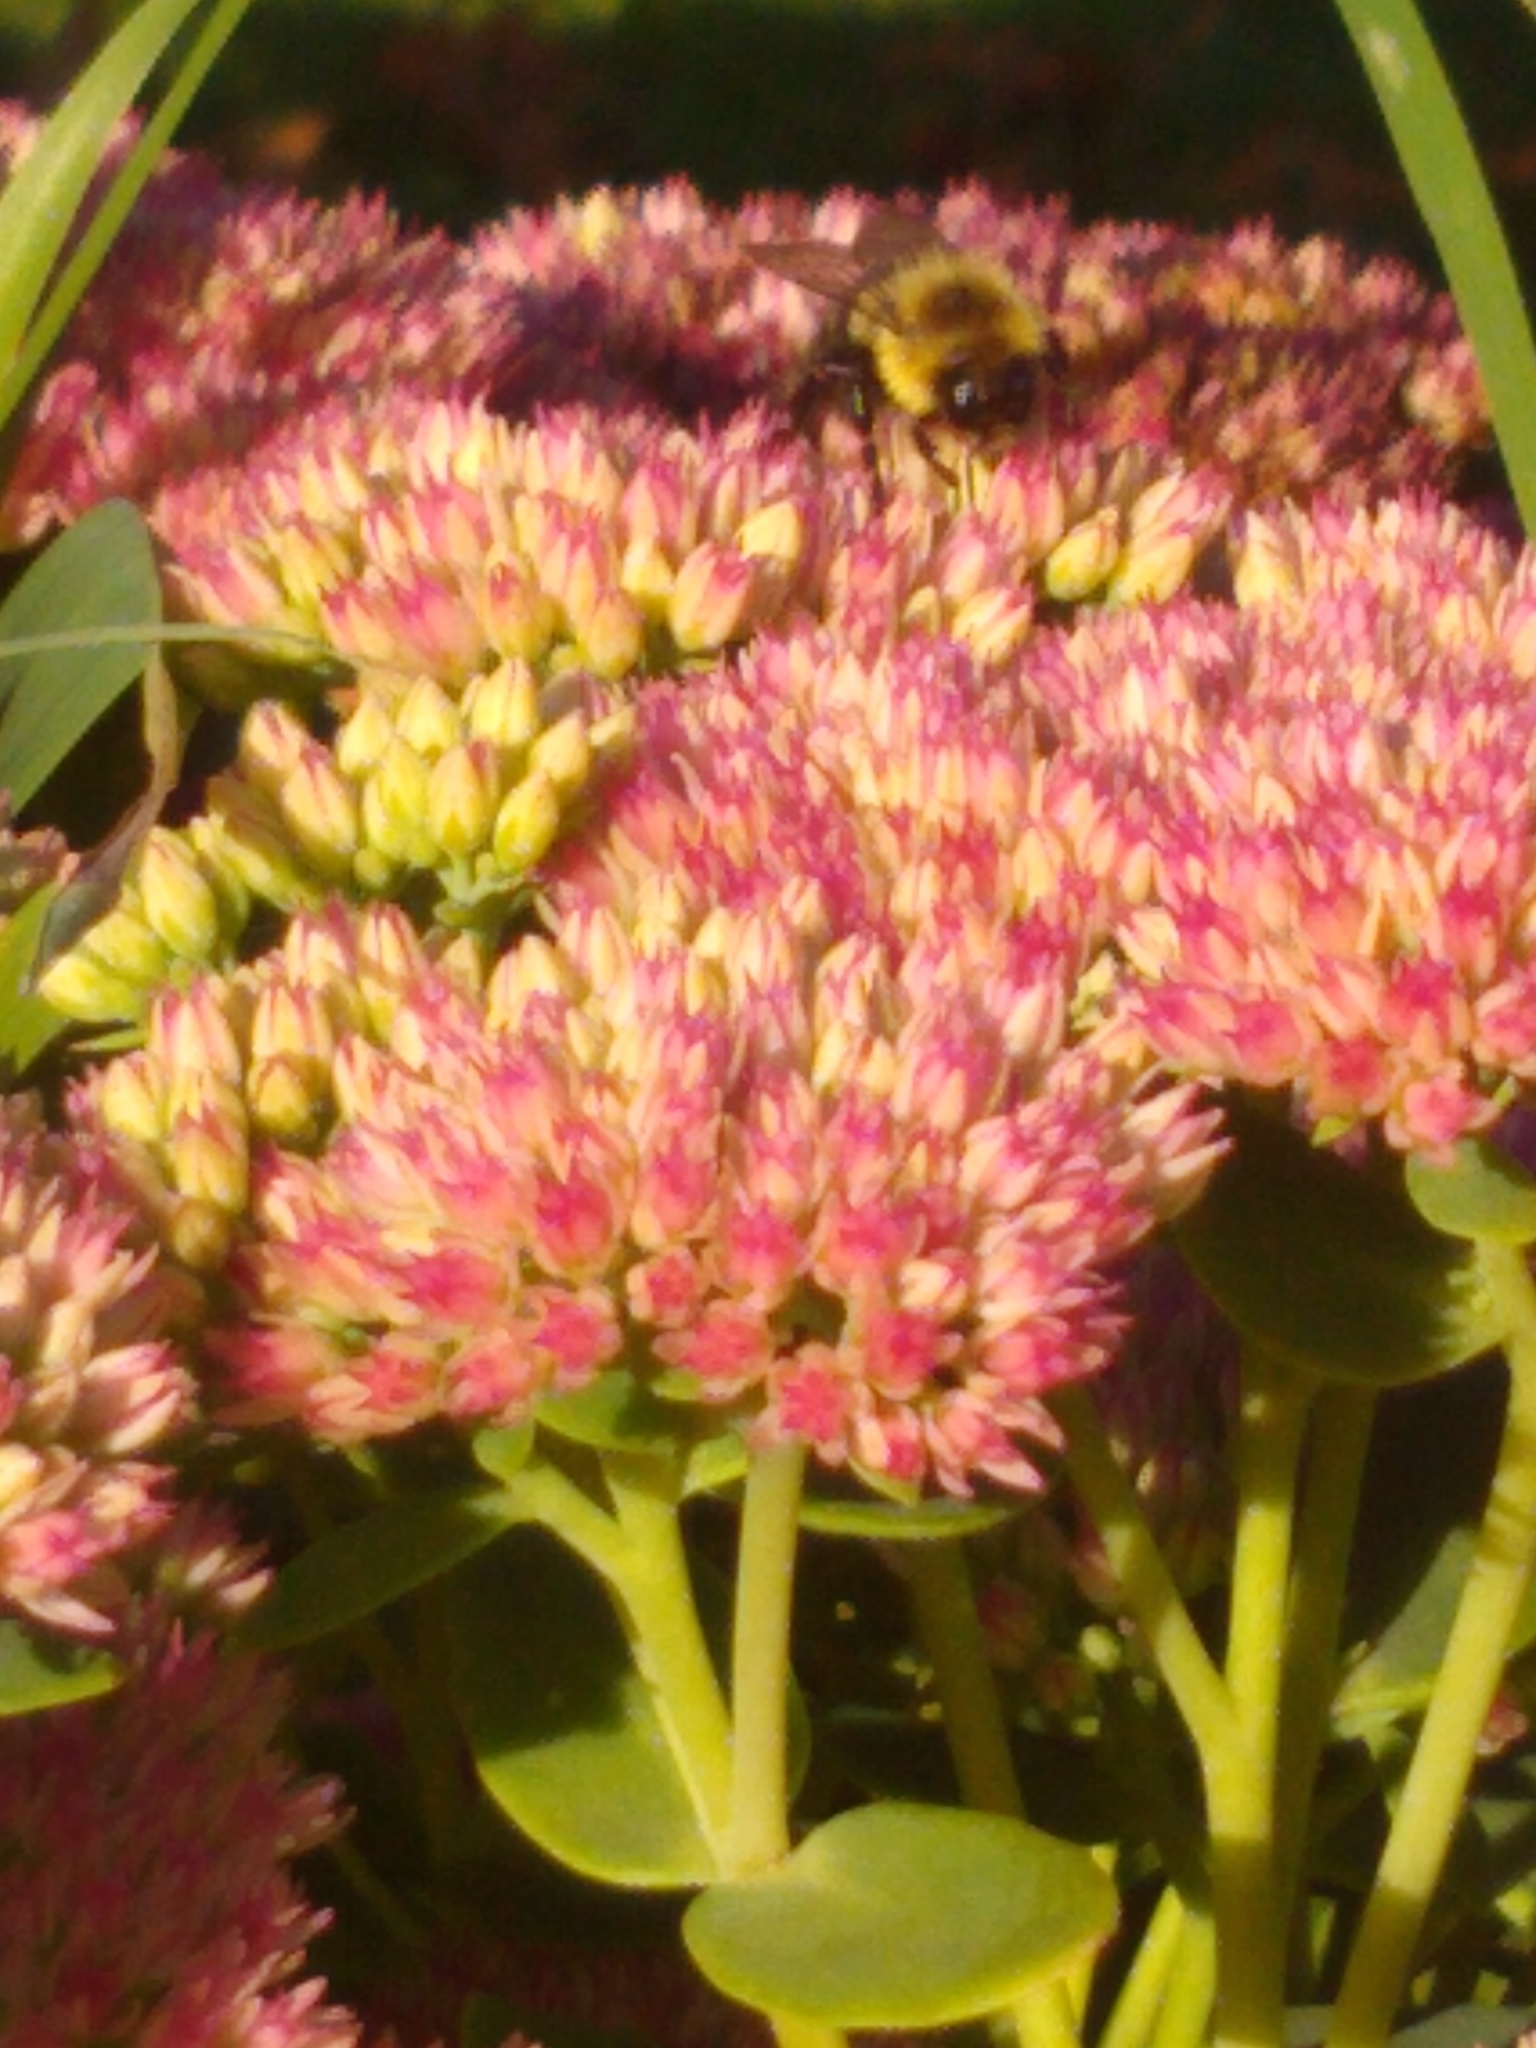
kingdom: Animalia
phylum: Arthropoda
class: Insecta
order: Hymenoptera
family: Apidae
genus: Bombus
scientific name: Bombus impatiens
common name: Common eastern bumble bee
